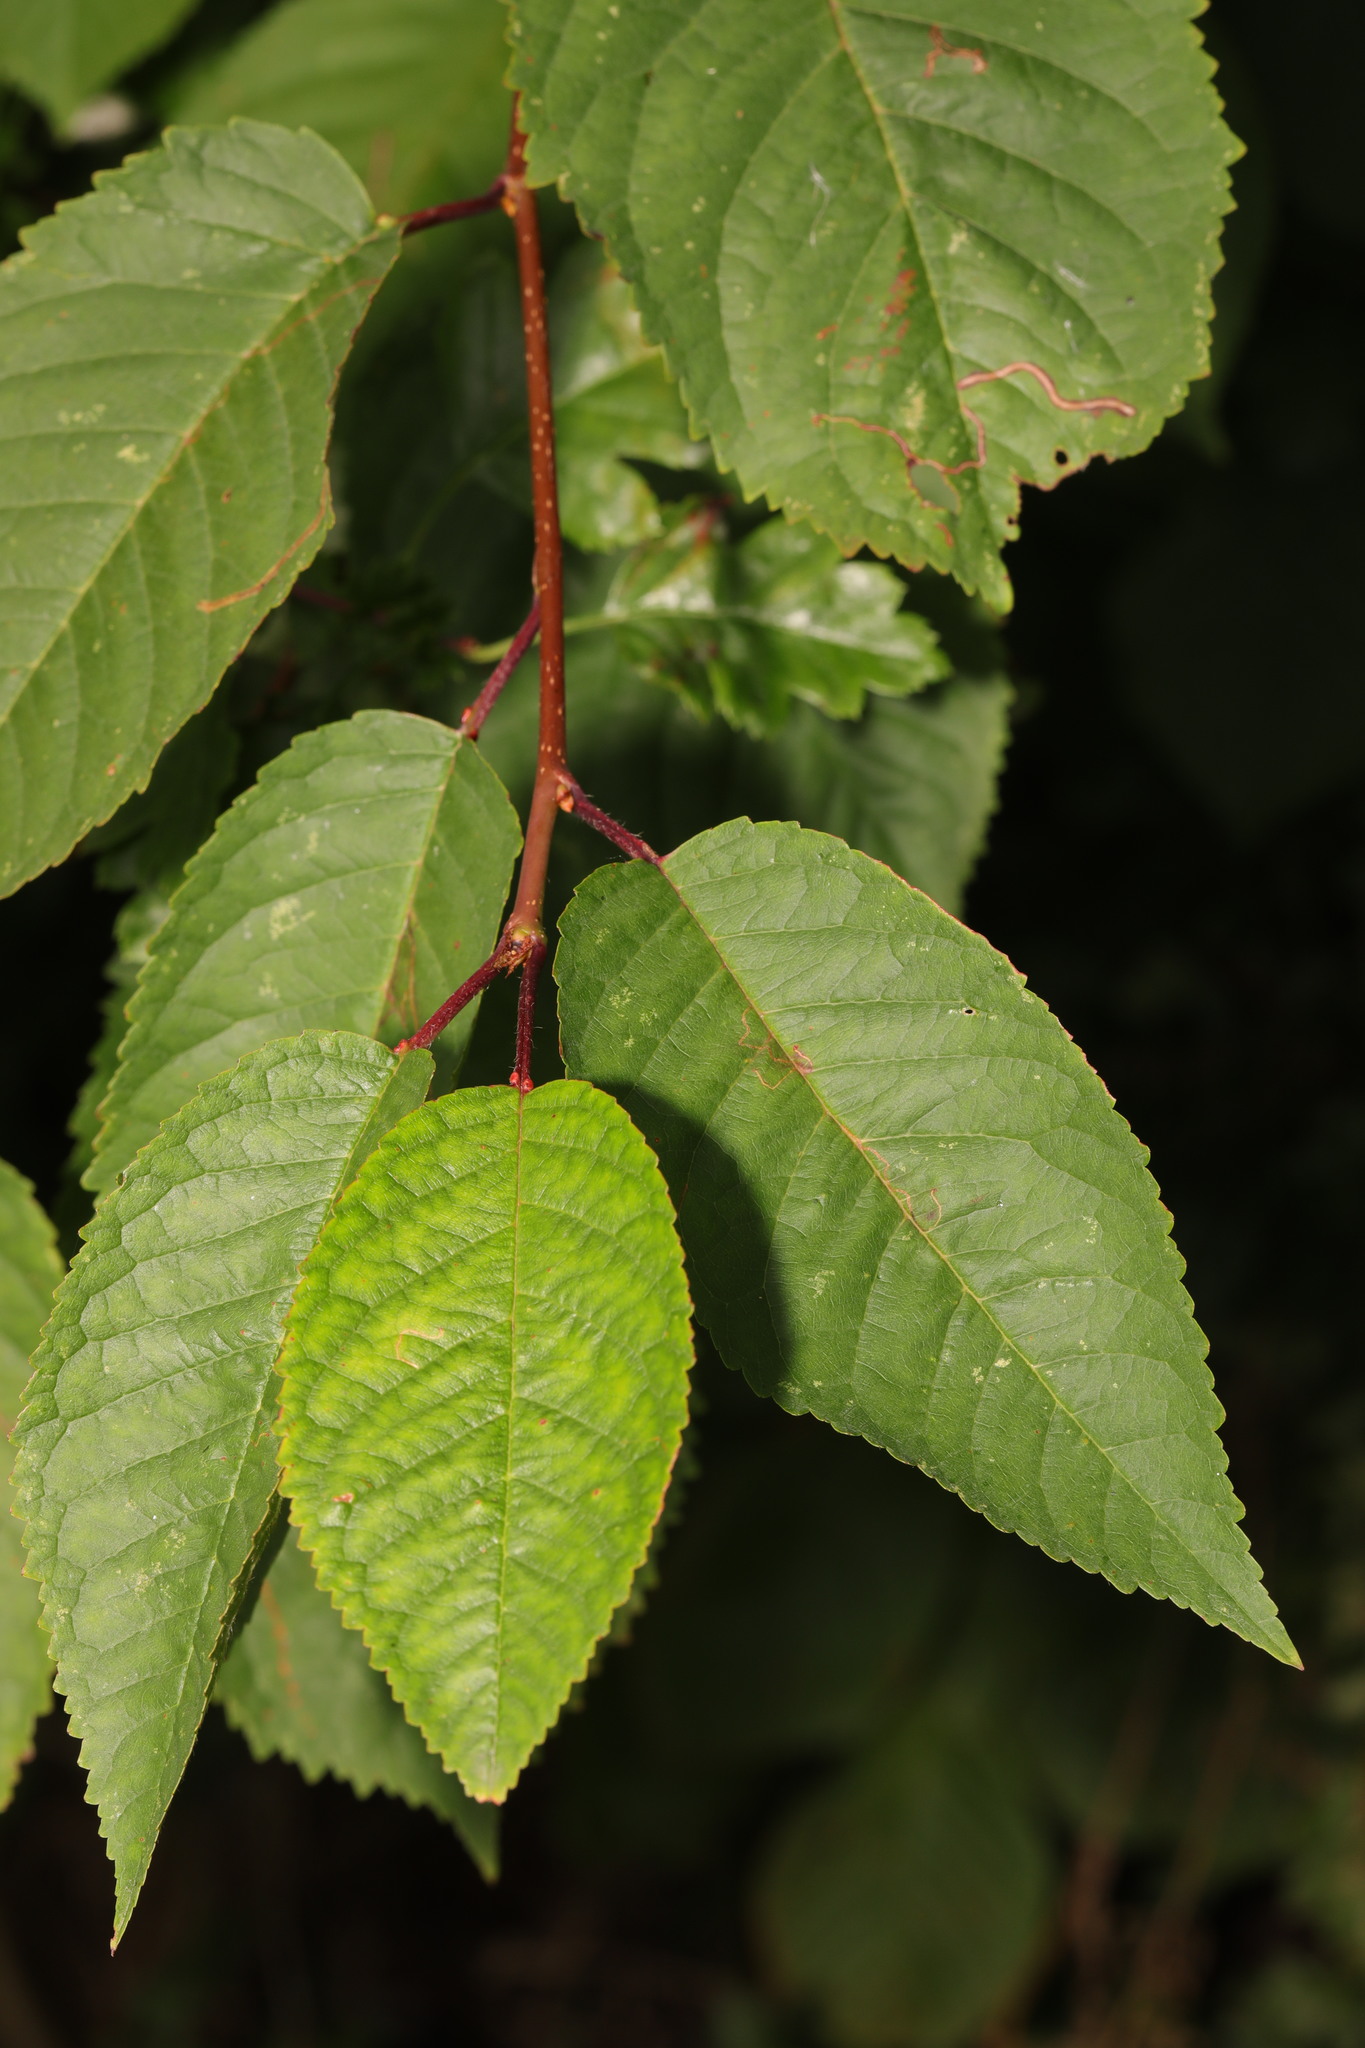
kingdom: Plantae
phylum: Tracheophyta
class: Magnoliopsida
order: Rosales
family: Rosaceae
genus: Prunus
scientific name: Prunus avium
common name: Sweet cherry
